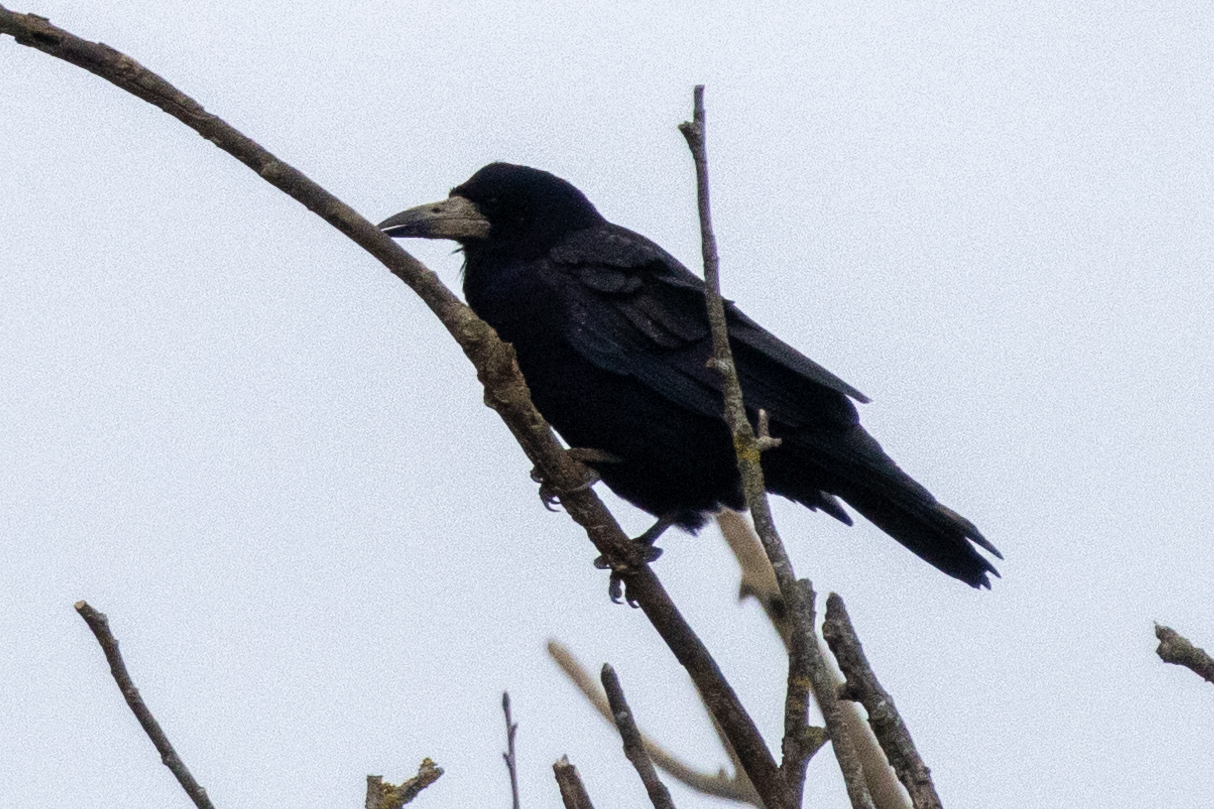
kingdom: Animalia
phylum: Chordata
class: Aves
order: Passeriformes
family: Corvidae
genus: Corvus
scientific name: Corvus frugilegus
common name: Rook
